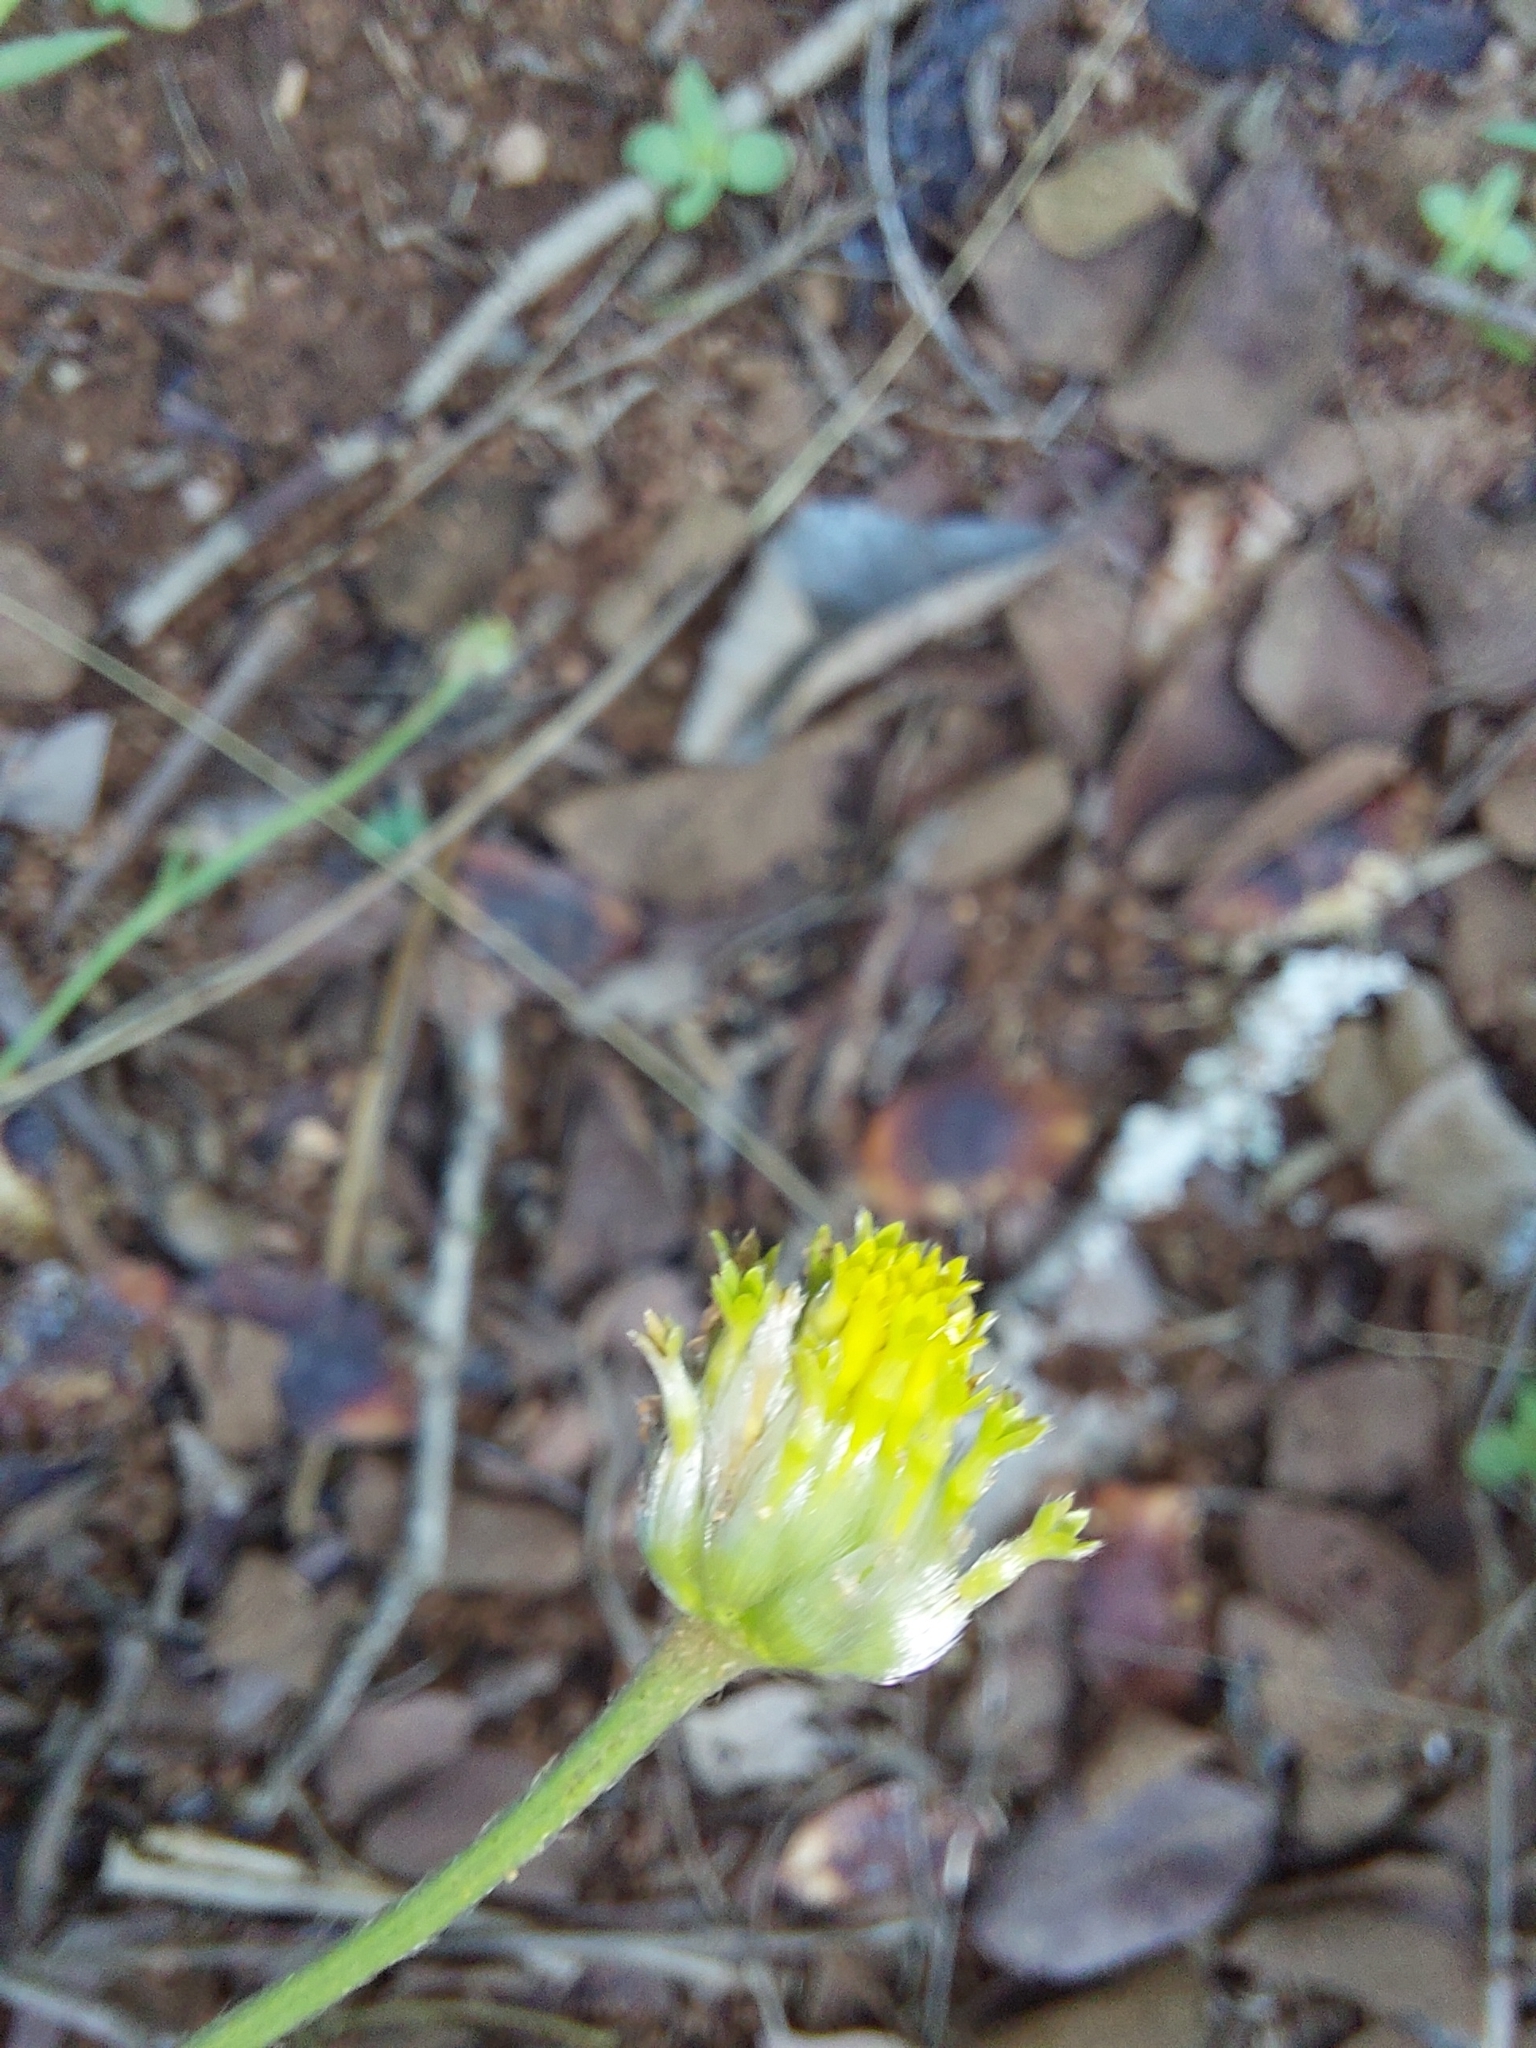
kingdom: Plantae
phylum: Tracheophyta
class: Magnoliopsida
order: Malvales
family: Thymelaeaceae
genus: Gnidia
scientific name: Gnidia sericocephala
